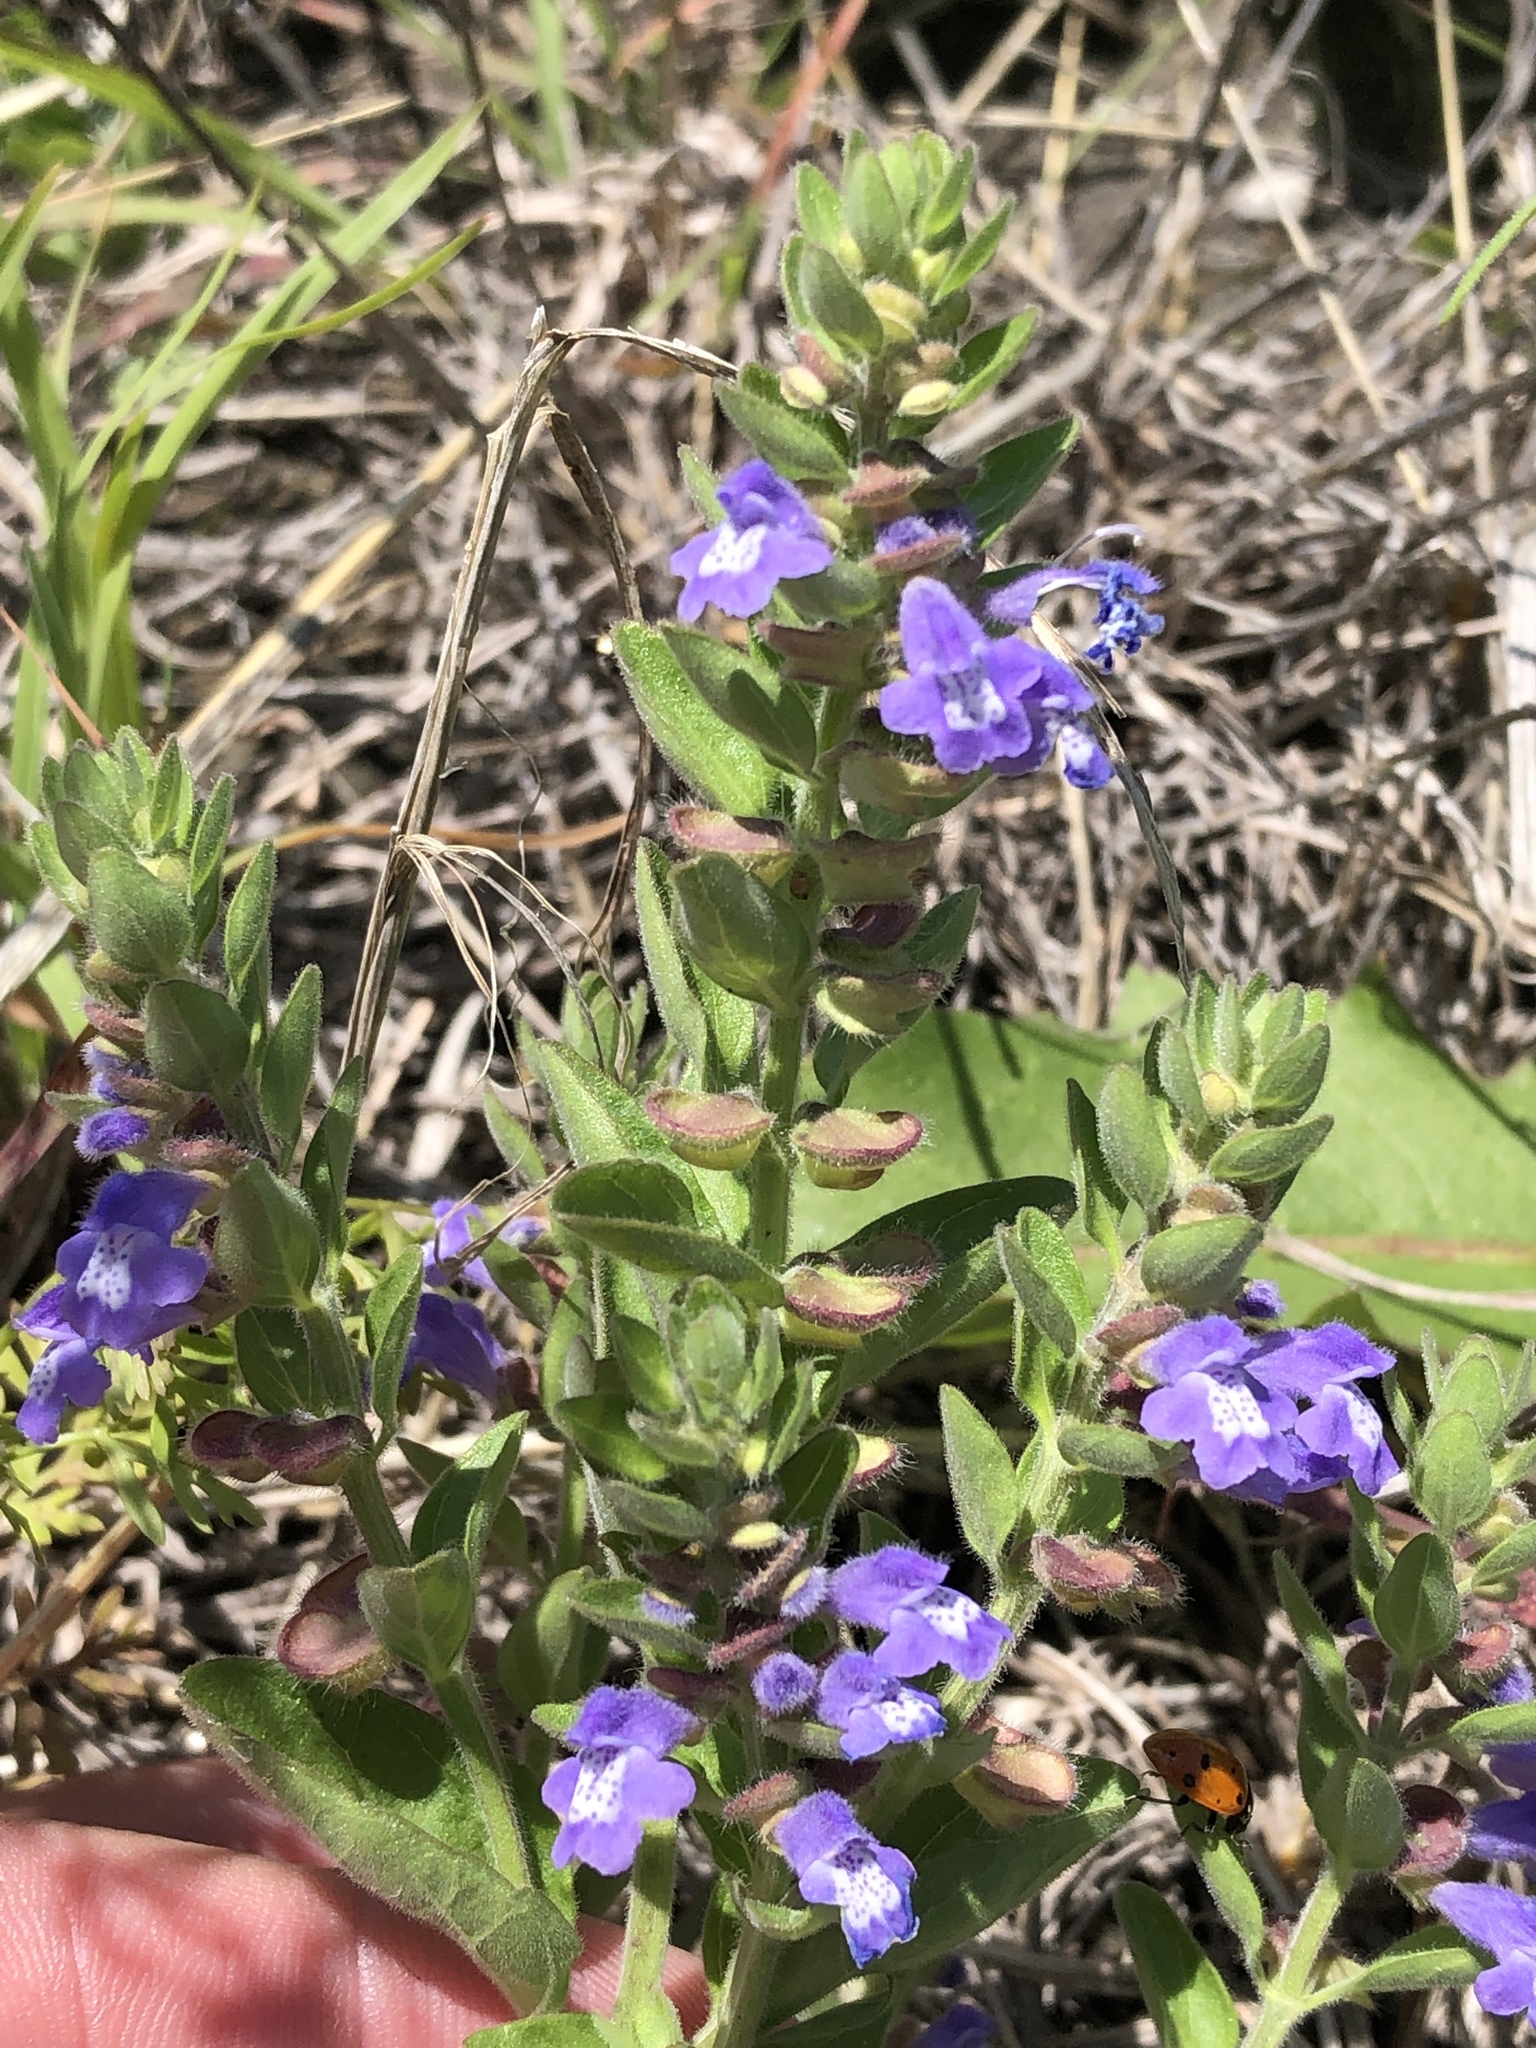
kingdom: Plantae
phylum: Tracheophyta
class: Magnoliopsida
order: Lamiales
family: Lamiaceae
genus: Scutellaria
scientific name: Scutellaria drummondii
